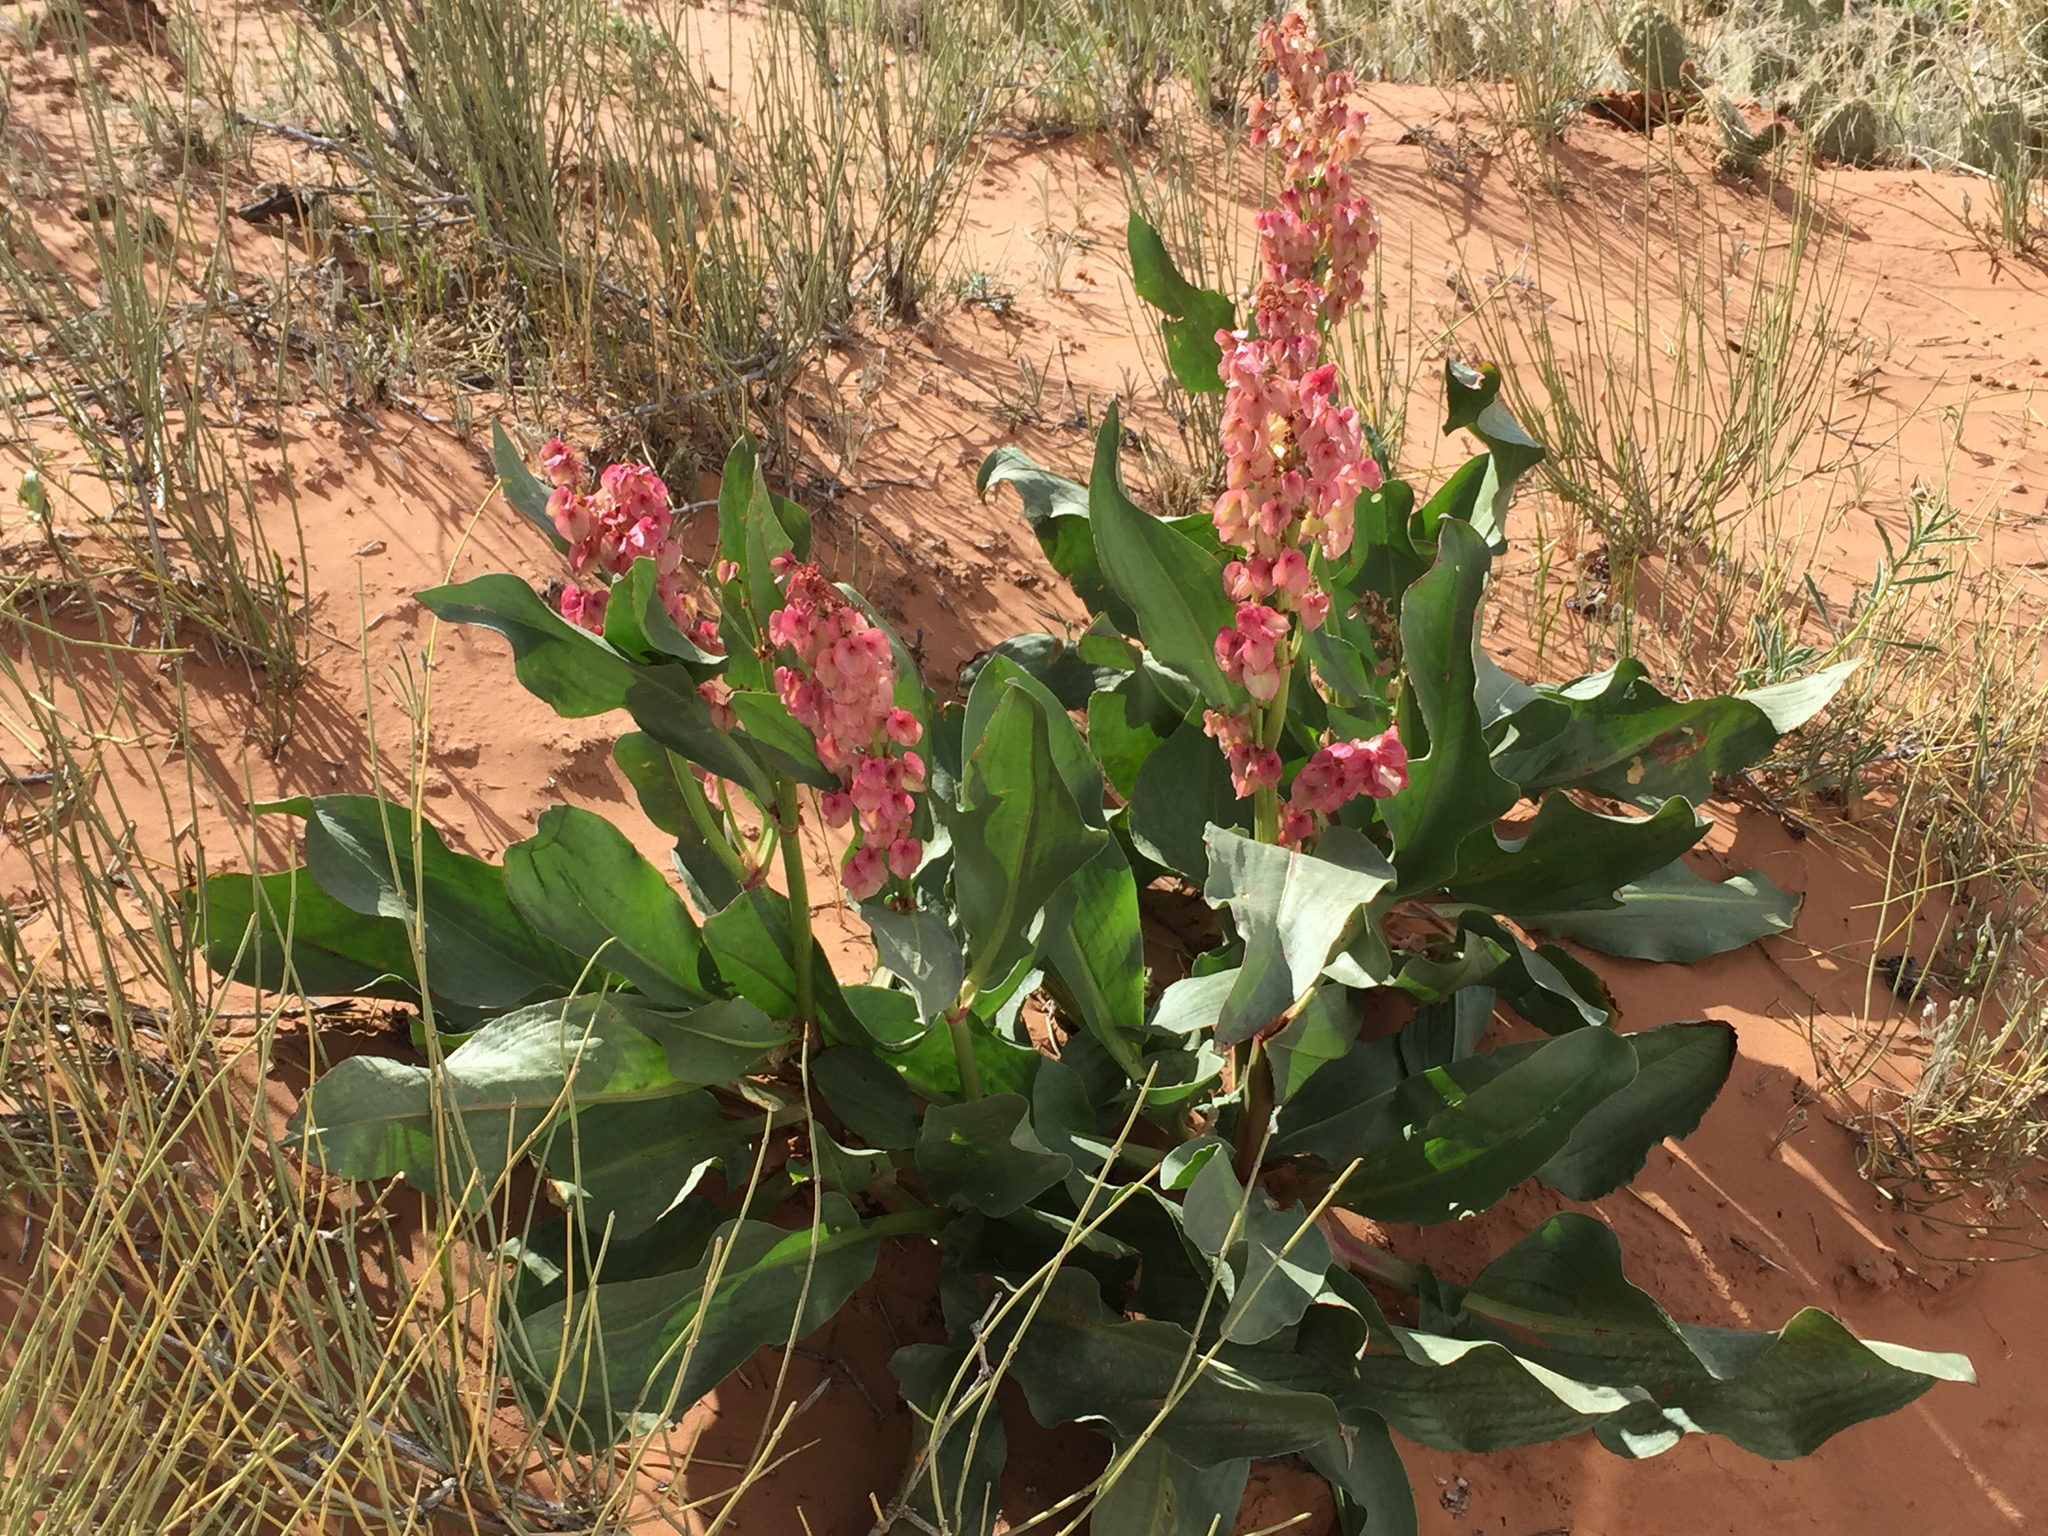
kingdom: Plantae
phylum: Tracheophyta
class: Magnoliopsida
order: Caryophyllales
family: Polygonaceae
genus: Rumex
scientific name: Rumex hymenosepalus
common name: Ganagra
